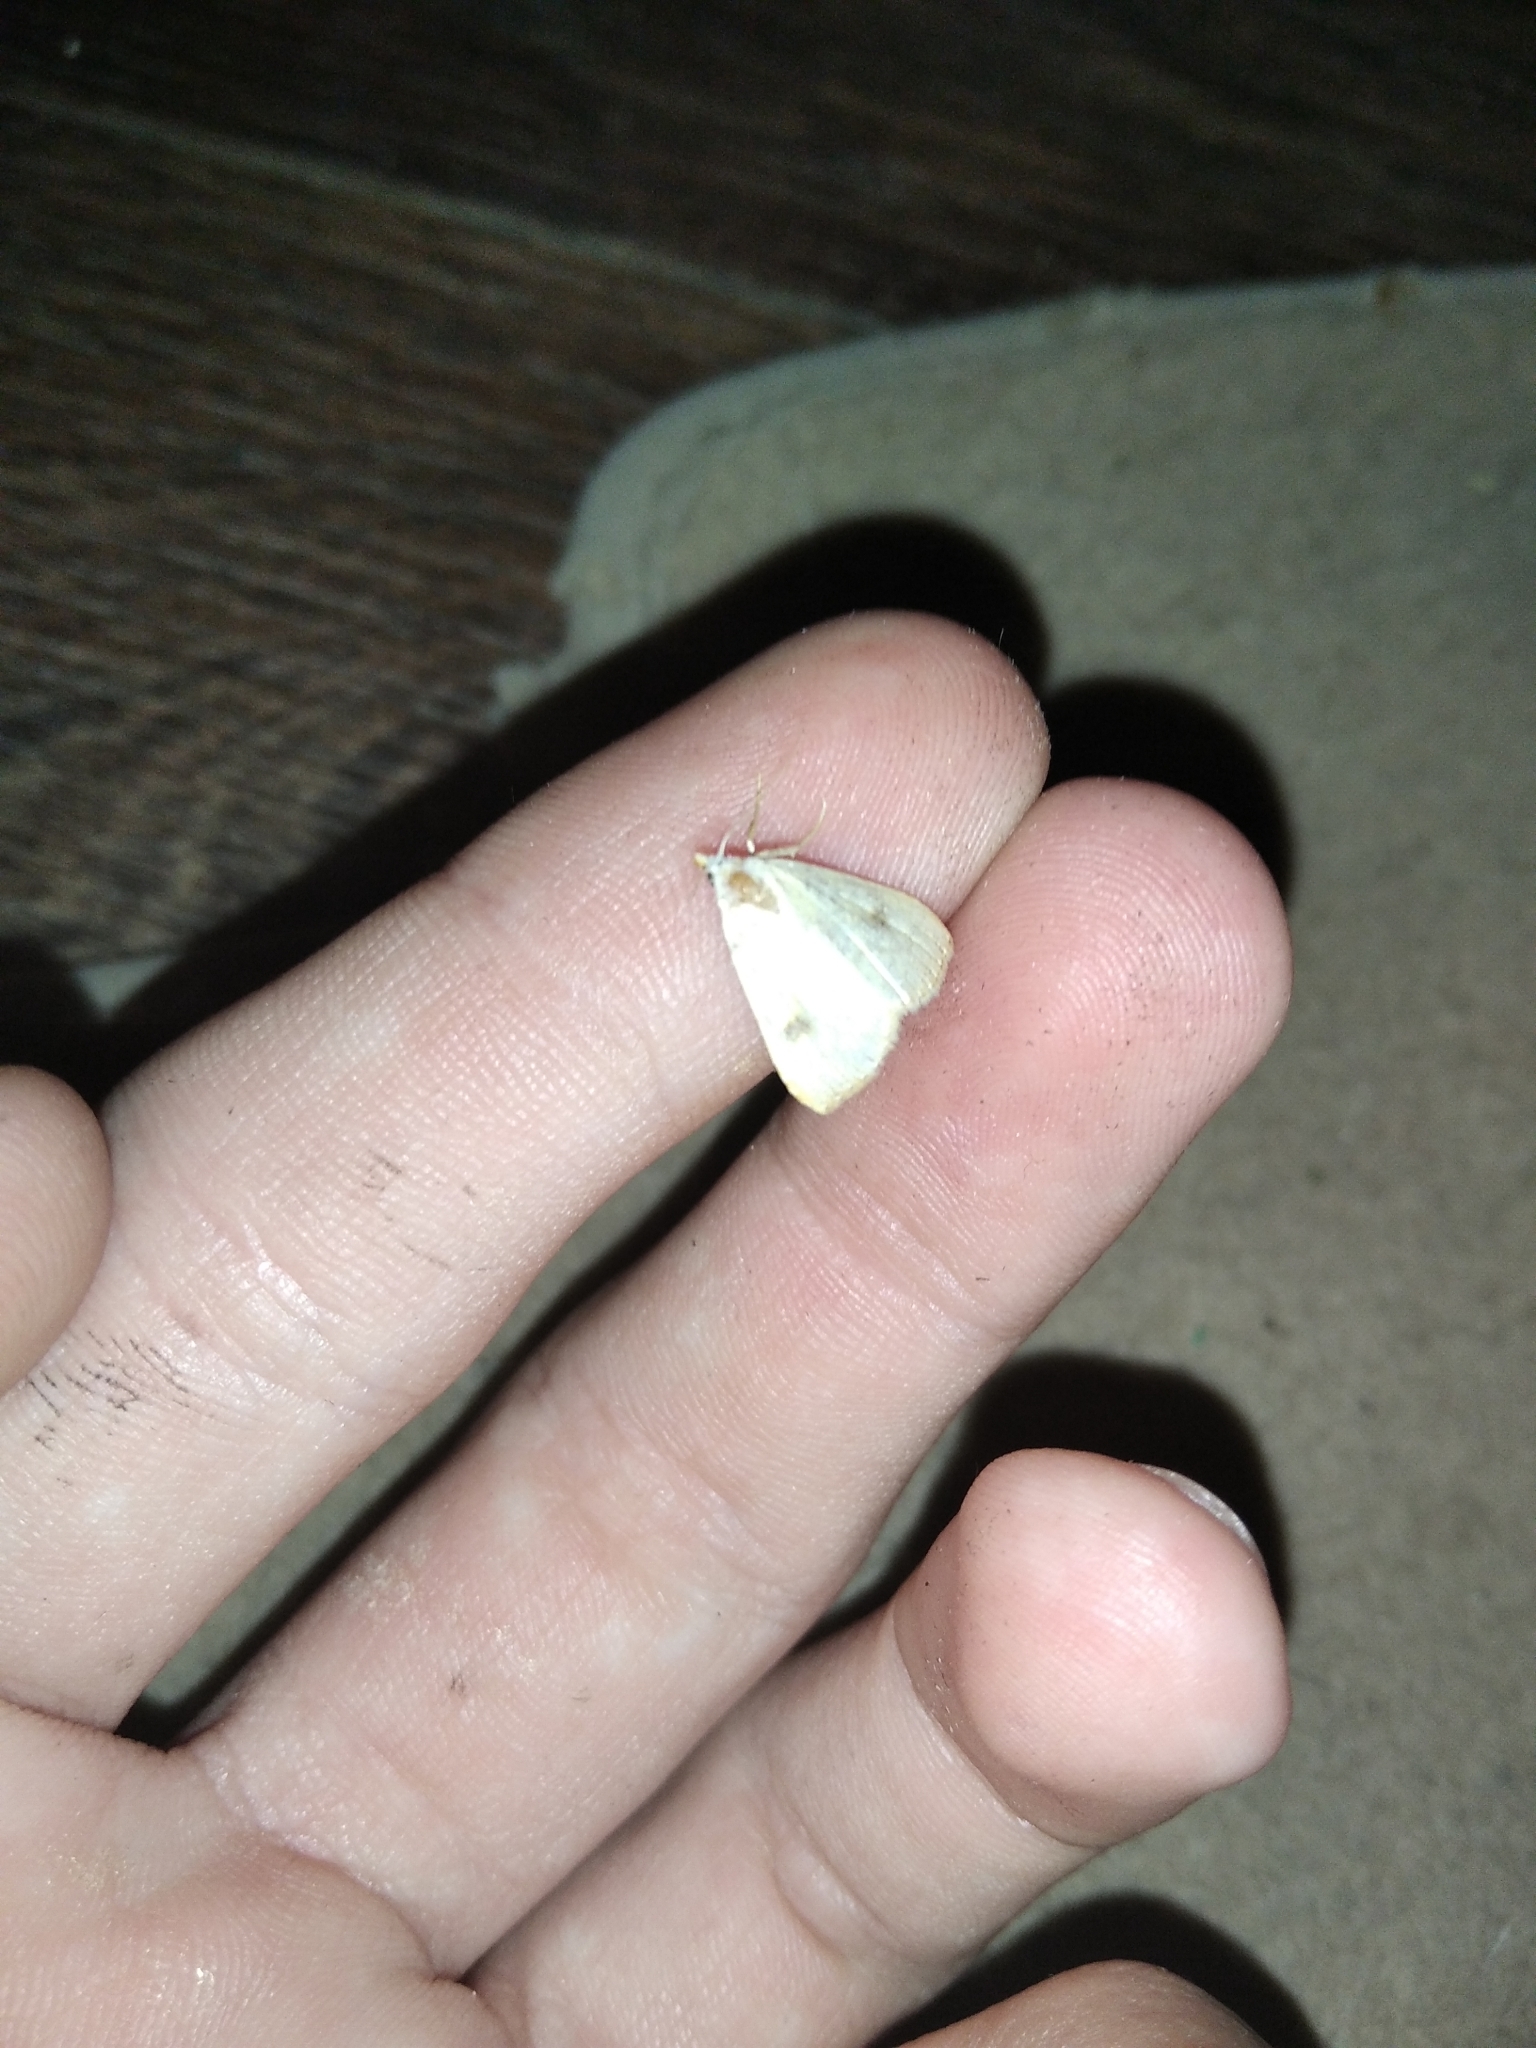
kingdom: Animalia
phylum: Arthropoda
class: Insecta
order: Lepidoptera
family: Erebidae
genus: Rivula
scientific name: Rivula sericealis
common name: Straw dot
